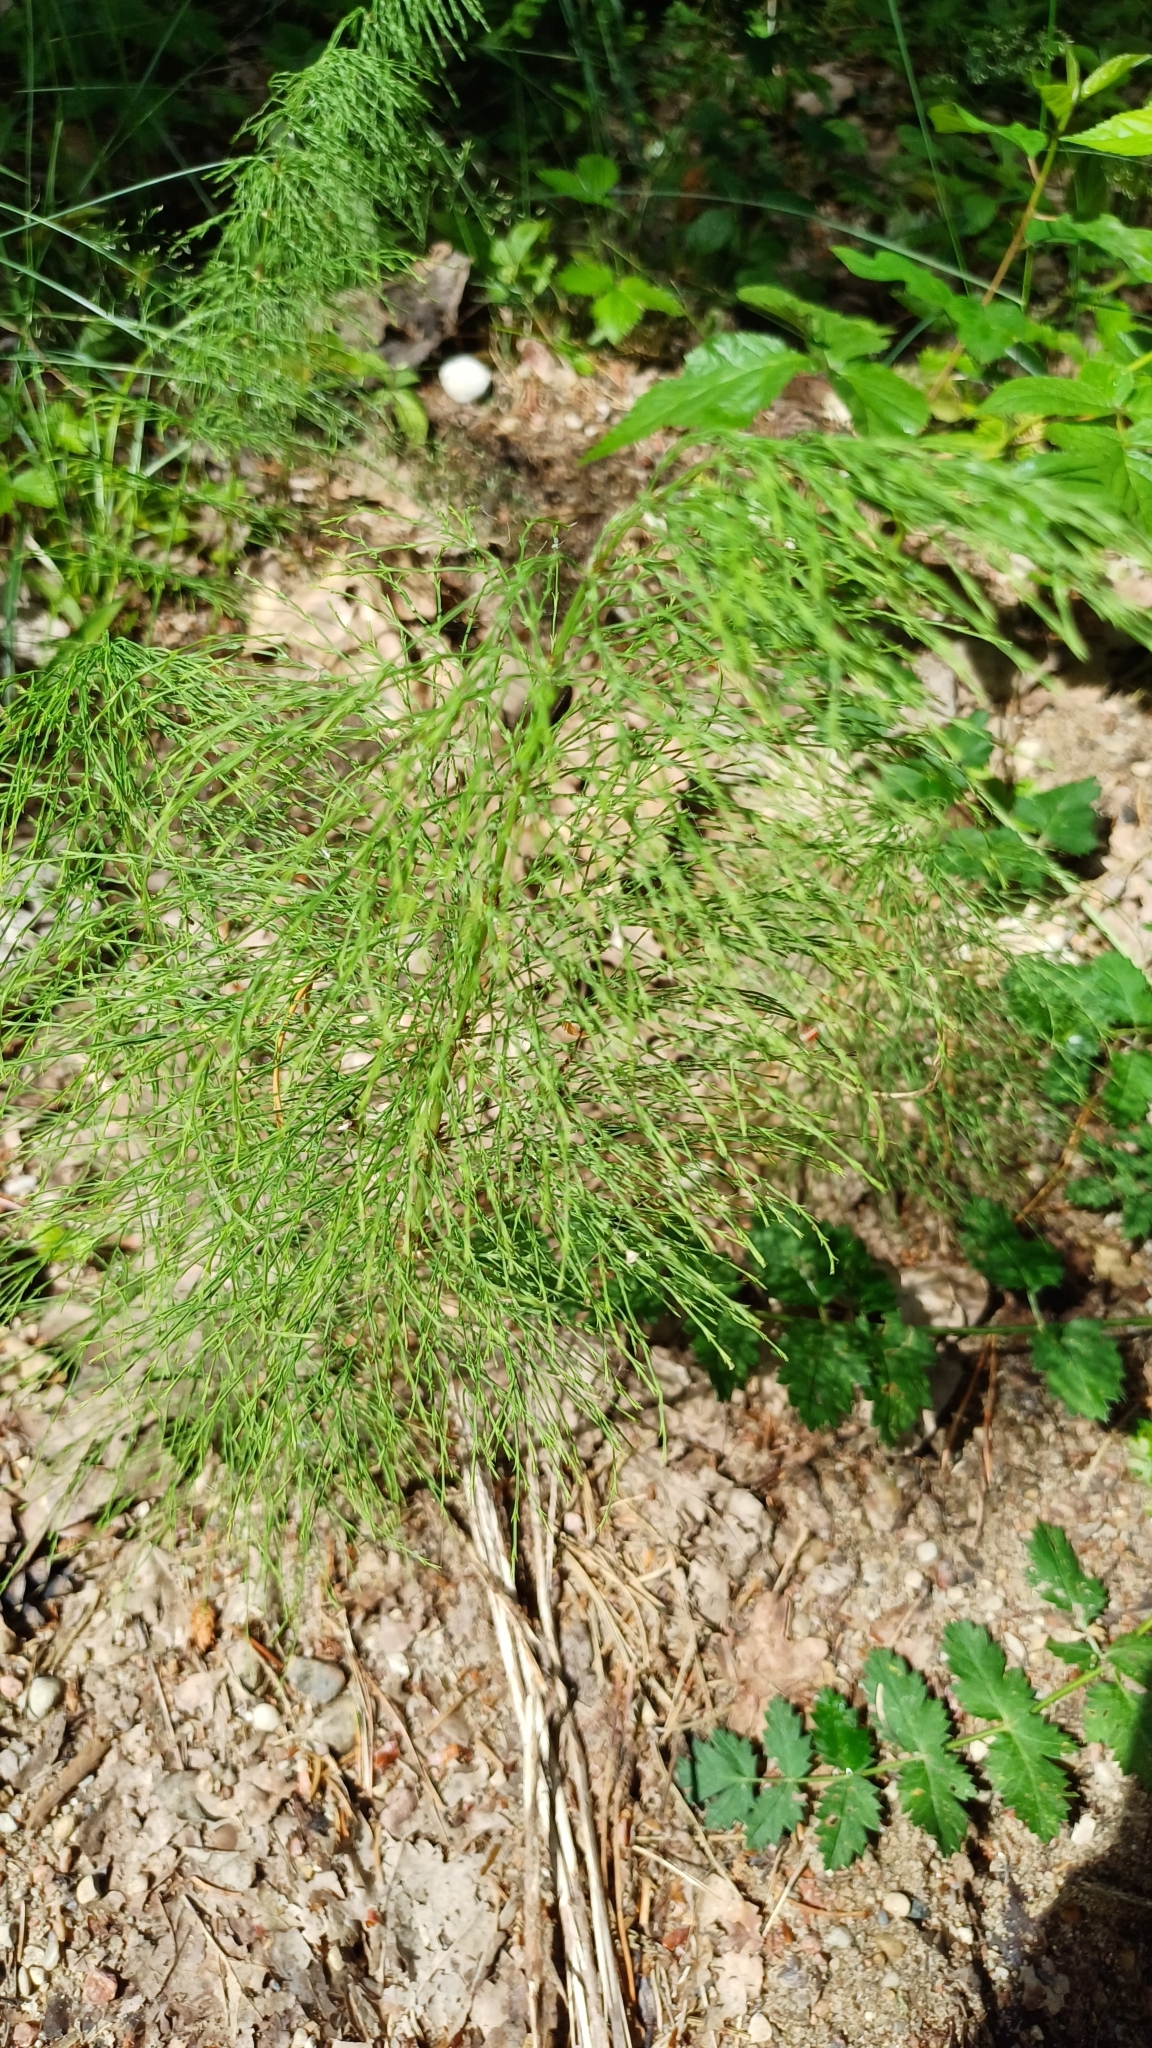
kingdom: Plantae
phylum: Tracheophyta
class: Polypodiopsida
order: Equisetales
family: Equisetaceae
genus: Equisetum
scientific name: Equisetum sylvaticum
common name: Wood horsetail
